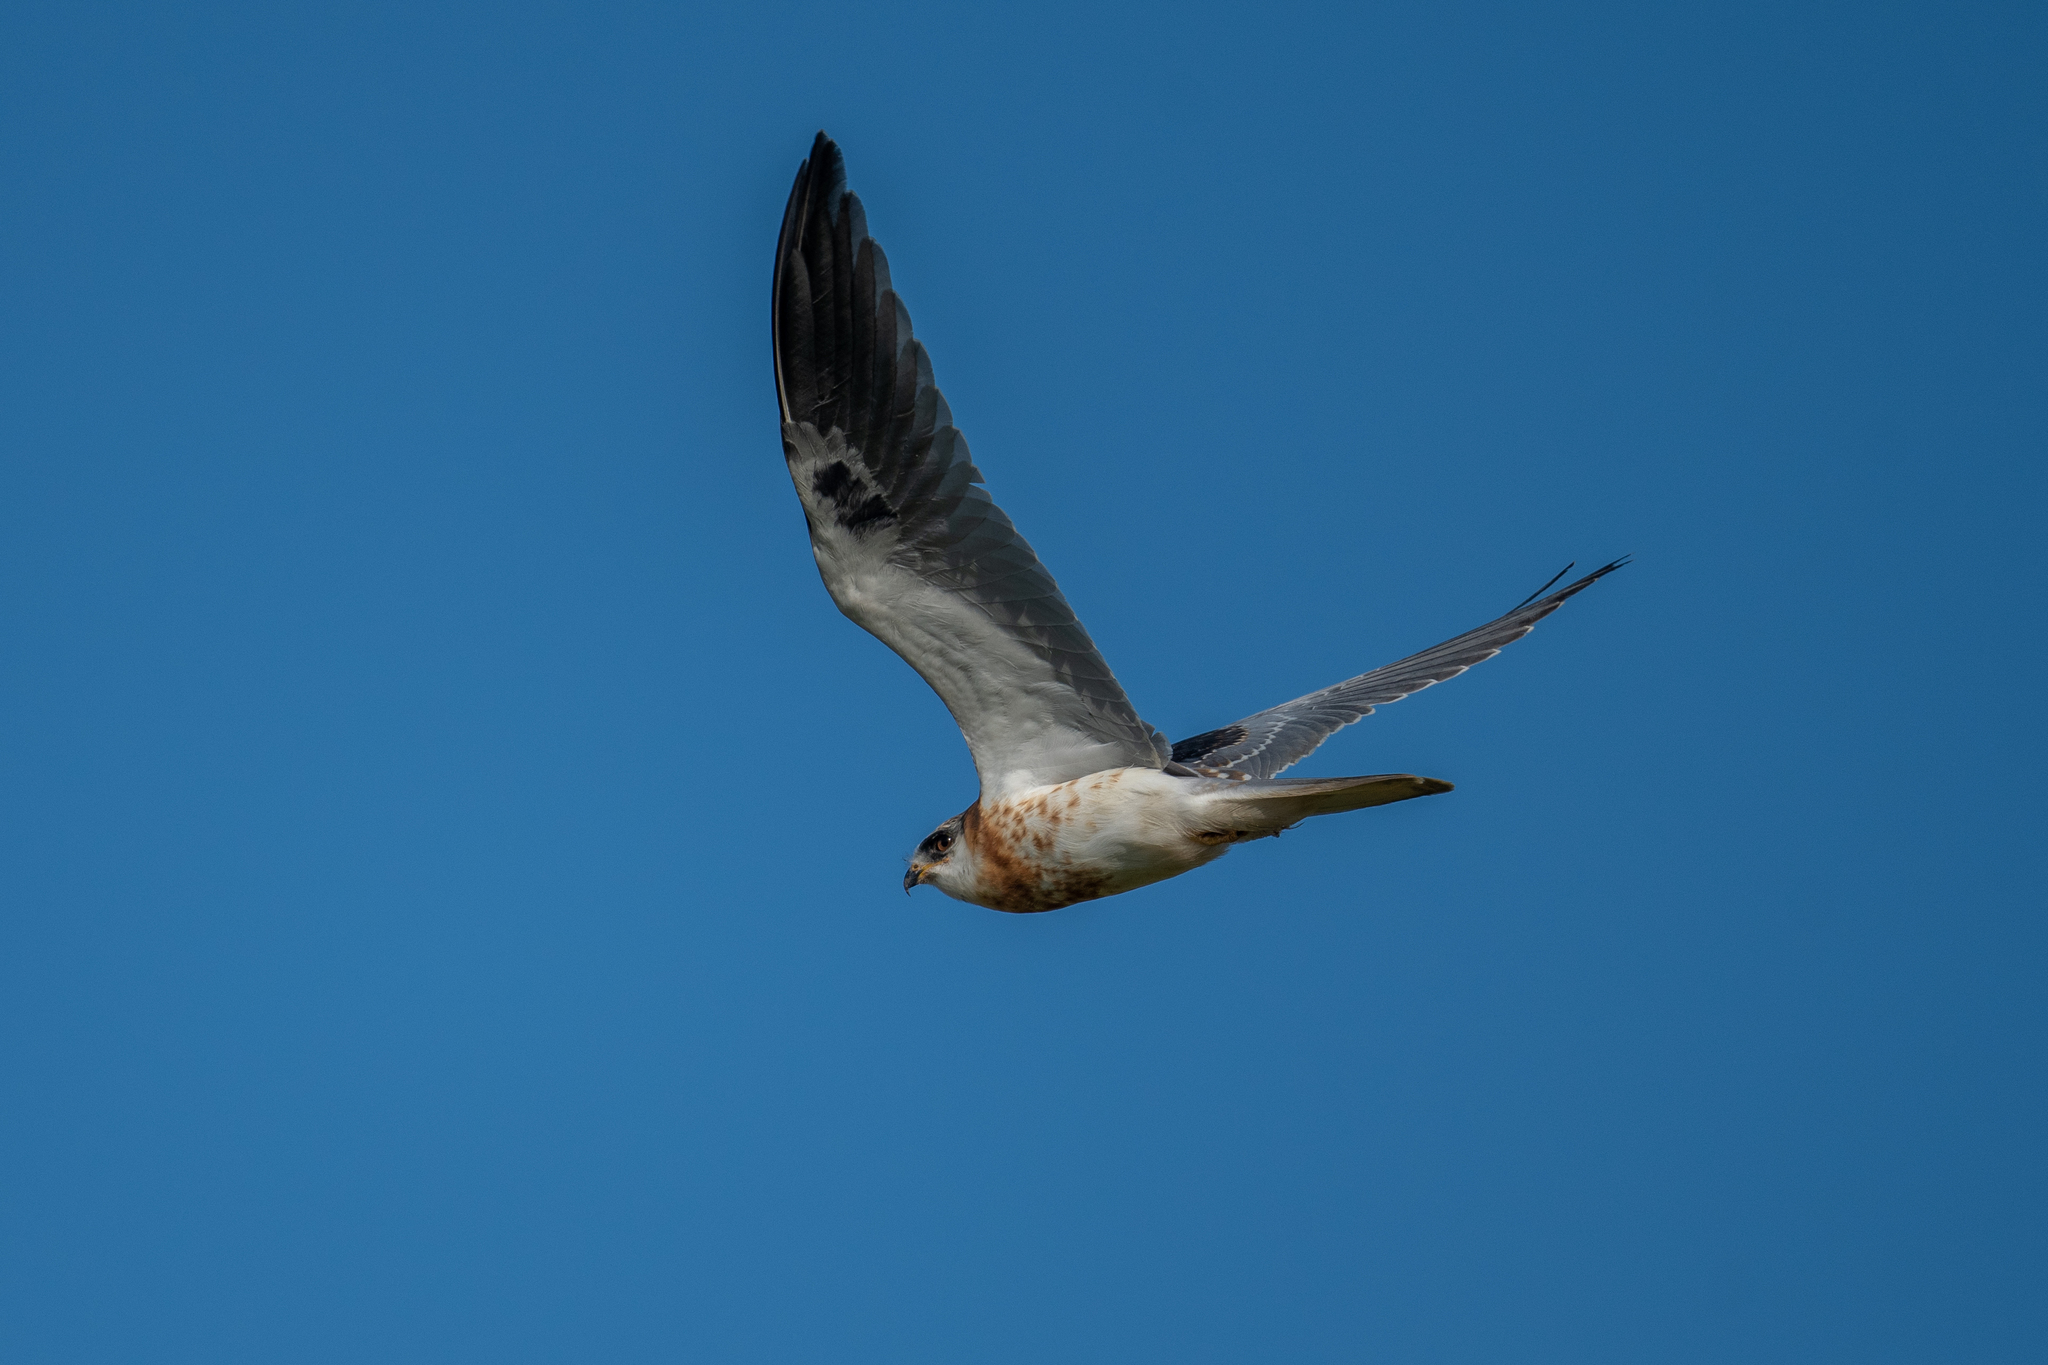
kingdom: Animalia
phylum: Chordata
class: Aves
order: Accipitriformes
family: Accipitridae
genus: Elanus
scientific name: Elanus leucurus
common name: White-tailed kite
